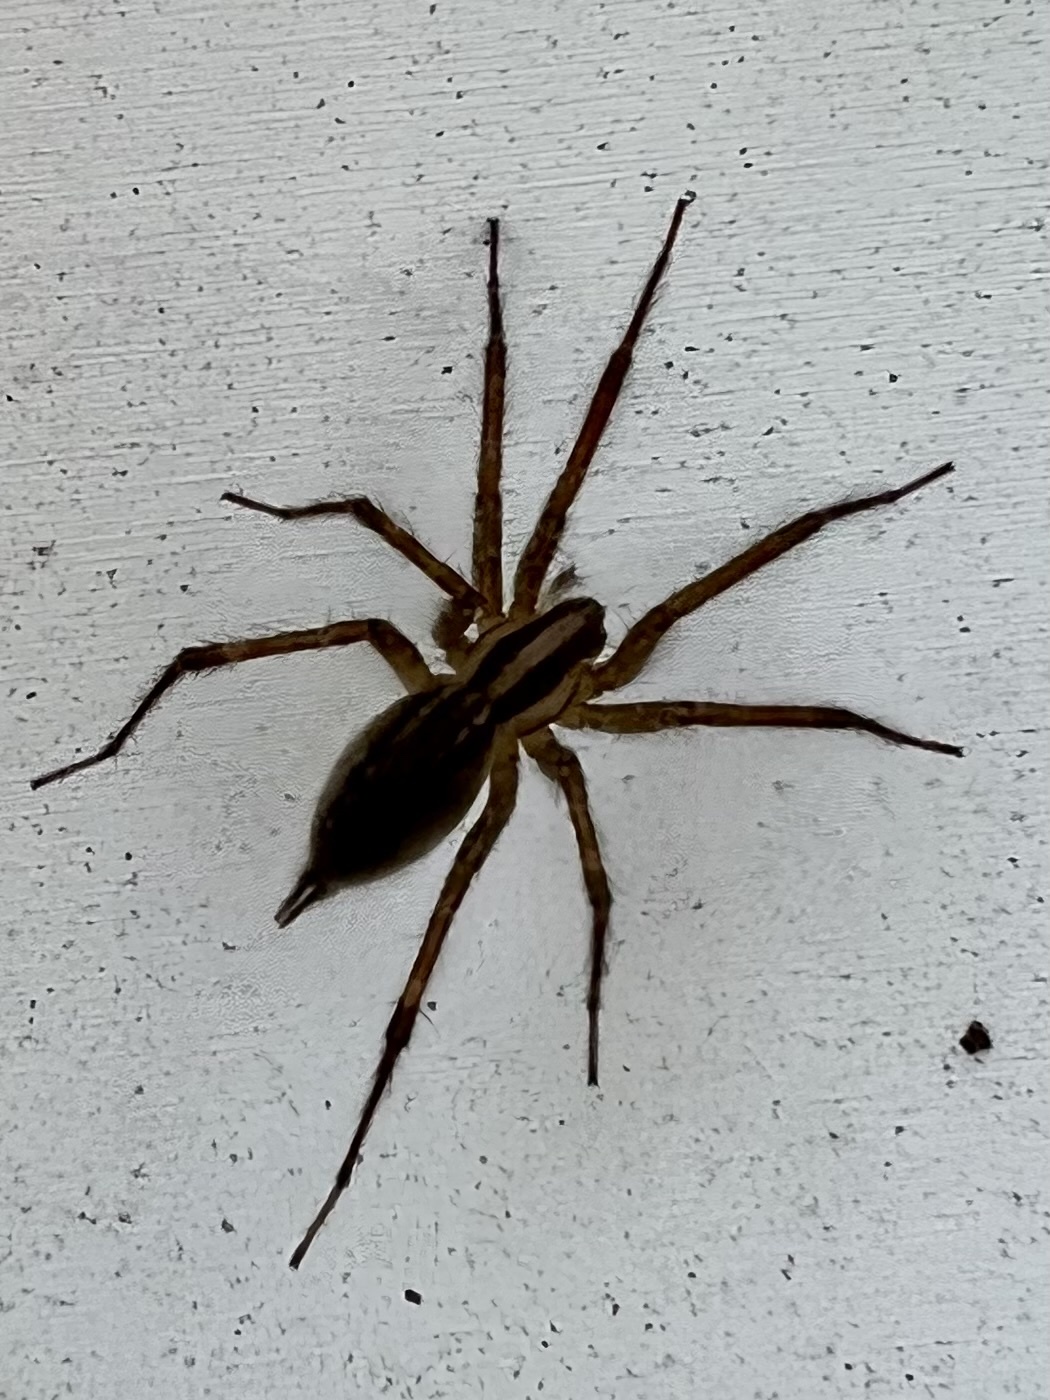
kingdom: Animalia
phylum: Arthropoda
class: Arachnida
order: Araneae
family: Agelenidae
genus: Agelenopsis
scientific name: Agelenopsis
